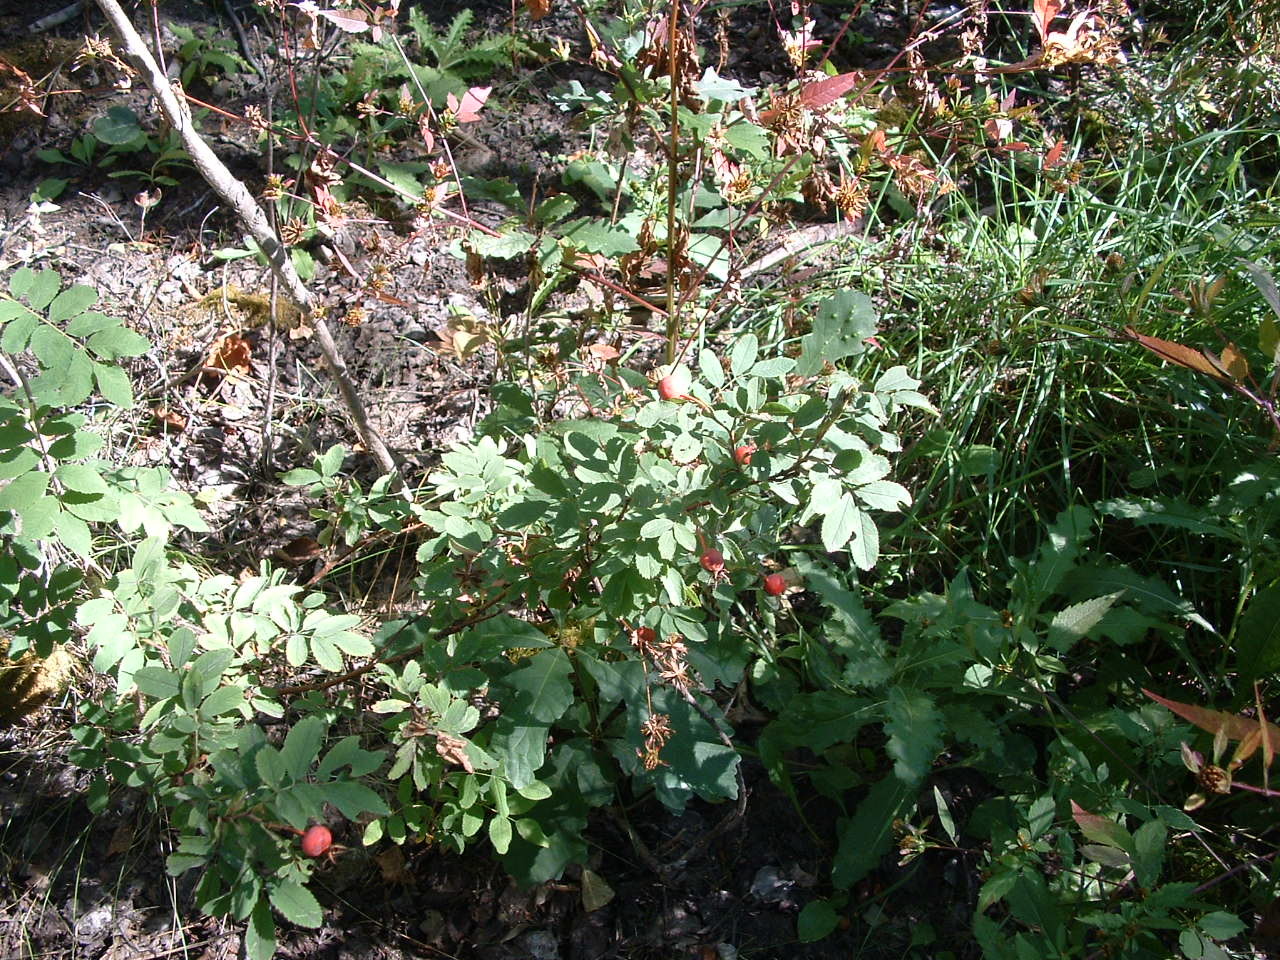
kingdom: Plantae
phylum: Tracheophyta
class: Magnoliopsida
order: Rosales
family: Rosaceae
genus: Rosa
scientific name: Rosa woodsii
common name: Woods's rose
